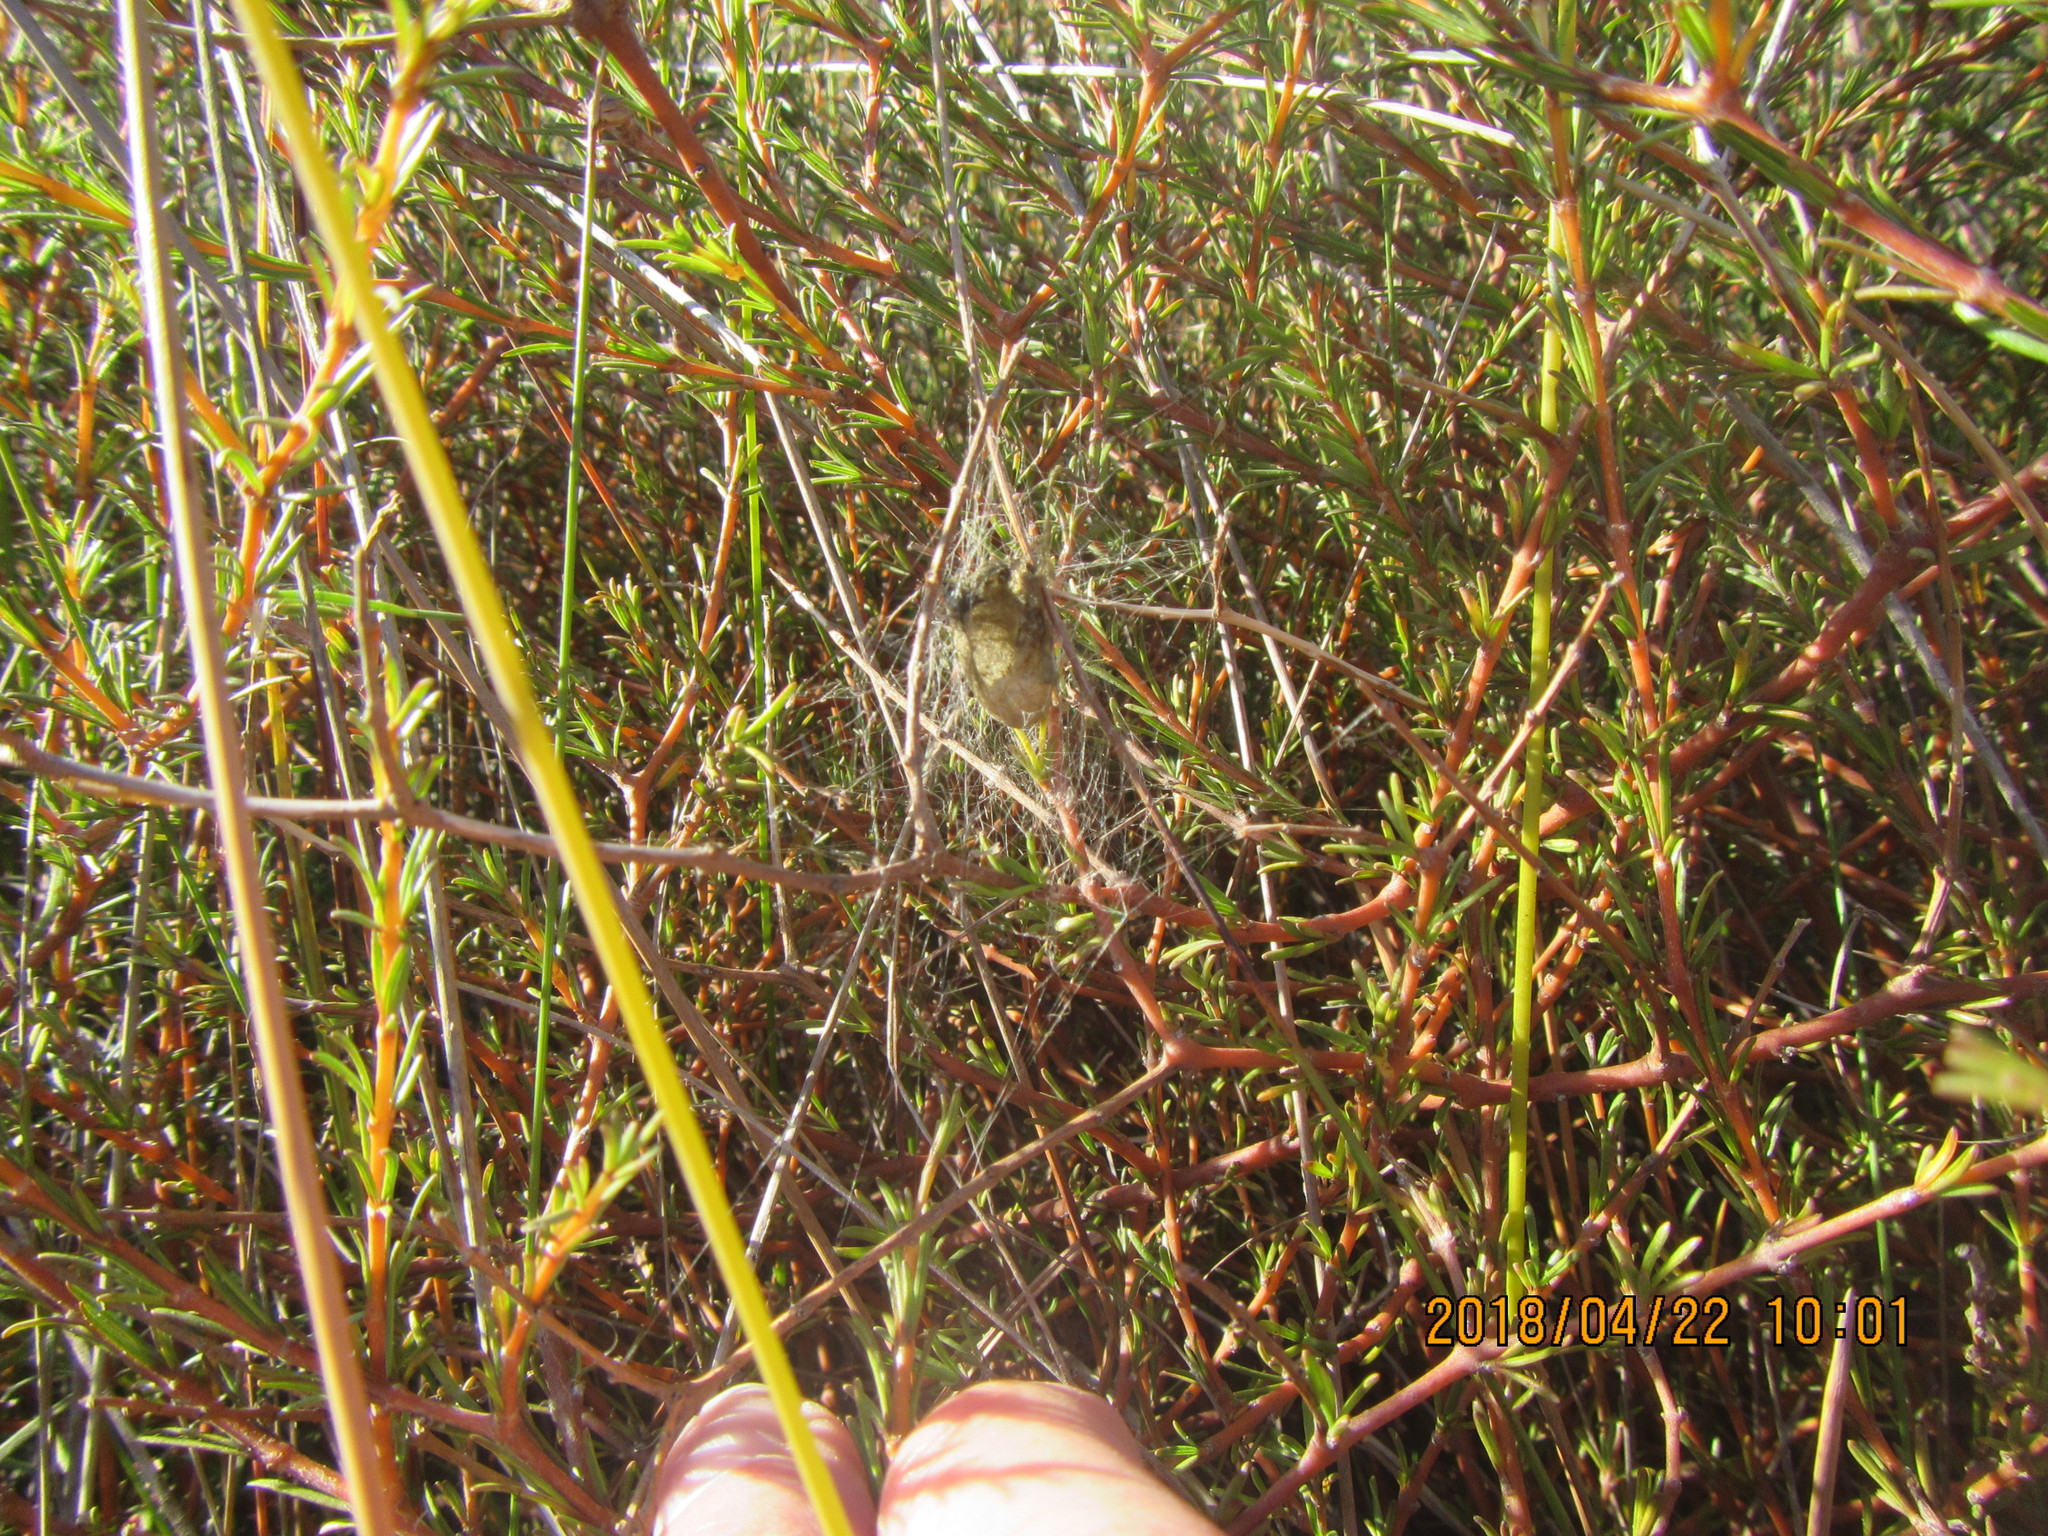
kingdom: Plantae
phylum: Tracheophyta
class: Magnoliopsida
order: Gentianales
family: Rubiaceae
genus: Coprosma
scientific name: Coprosma acerosa
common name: Sand coprosma
